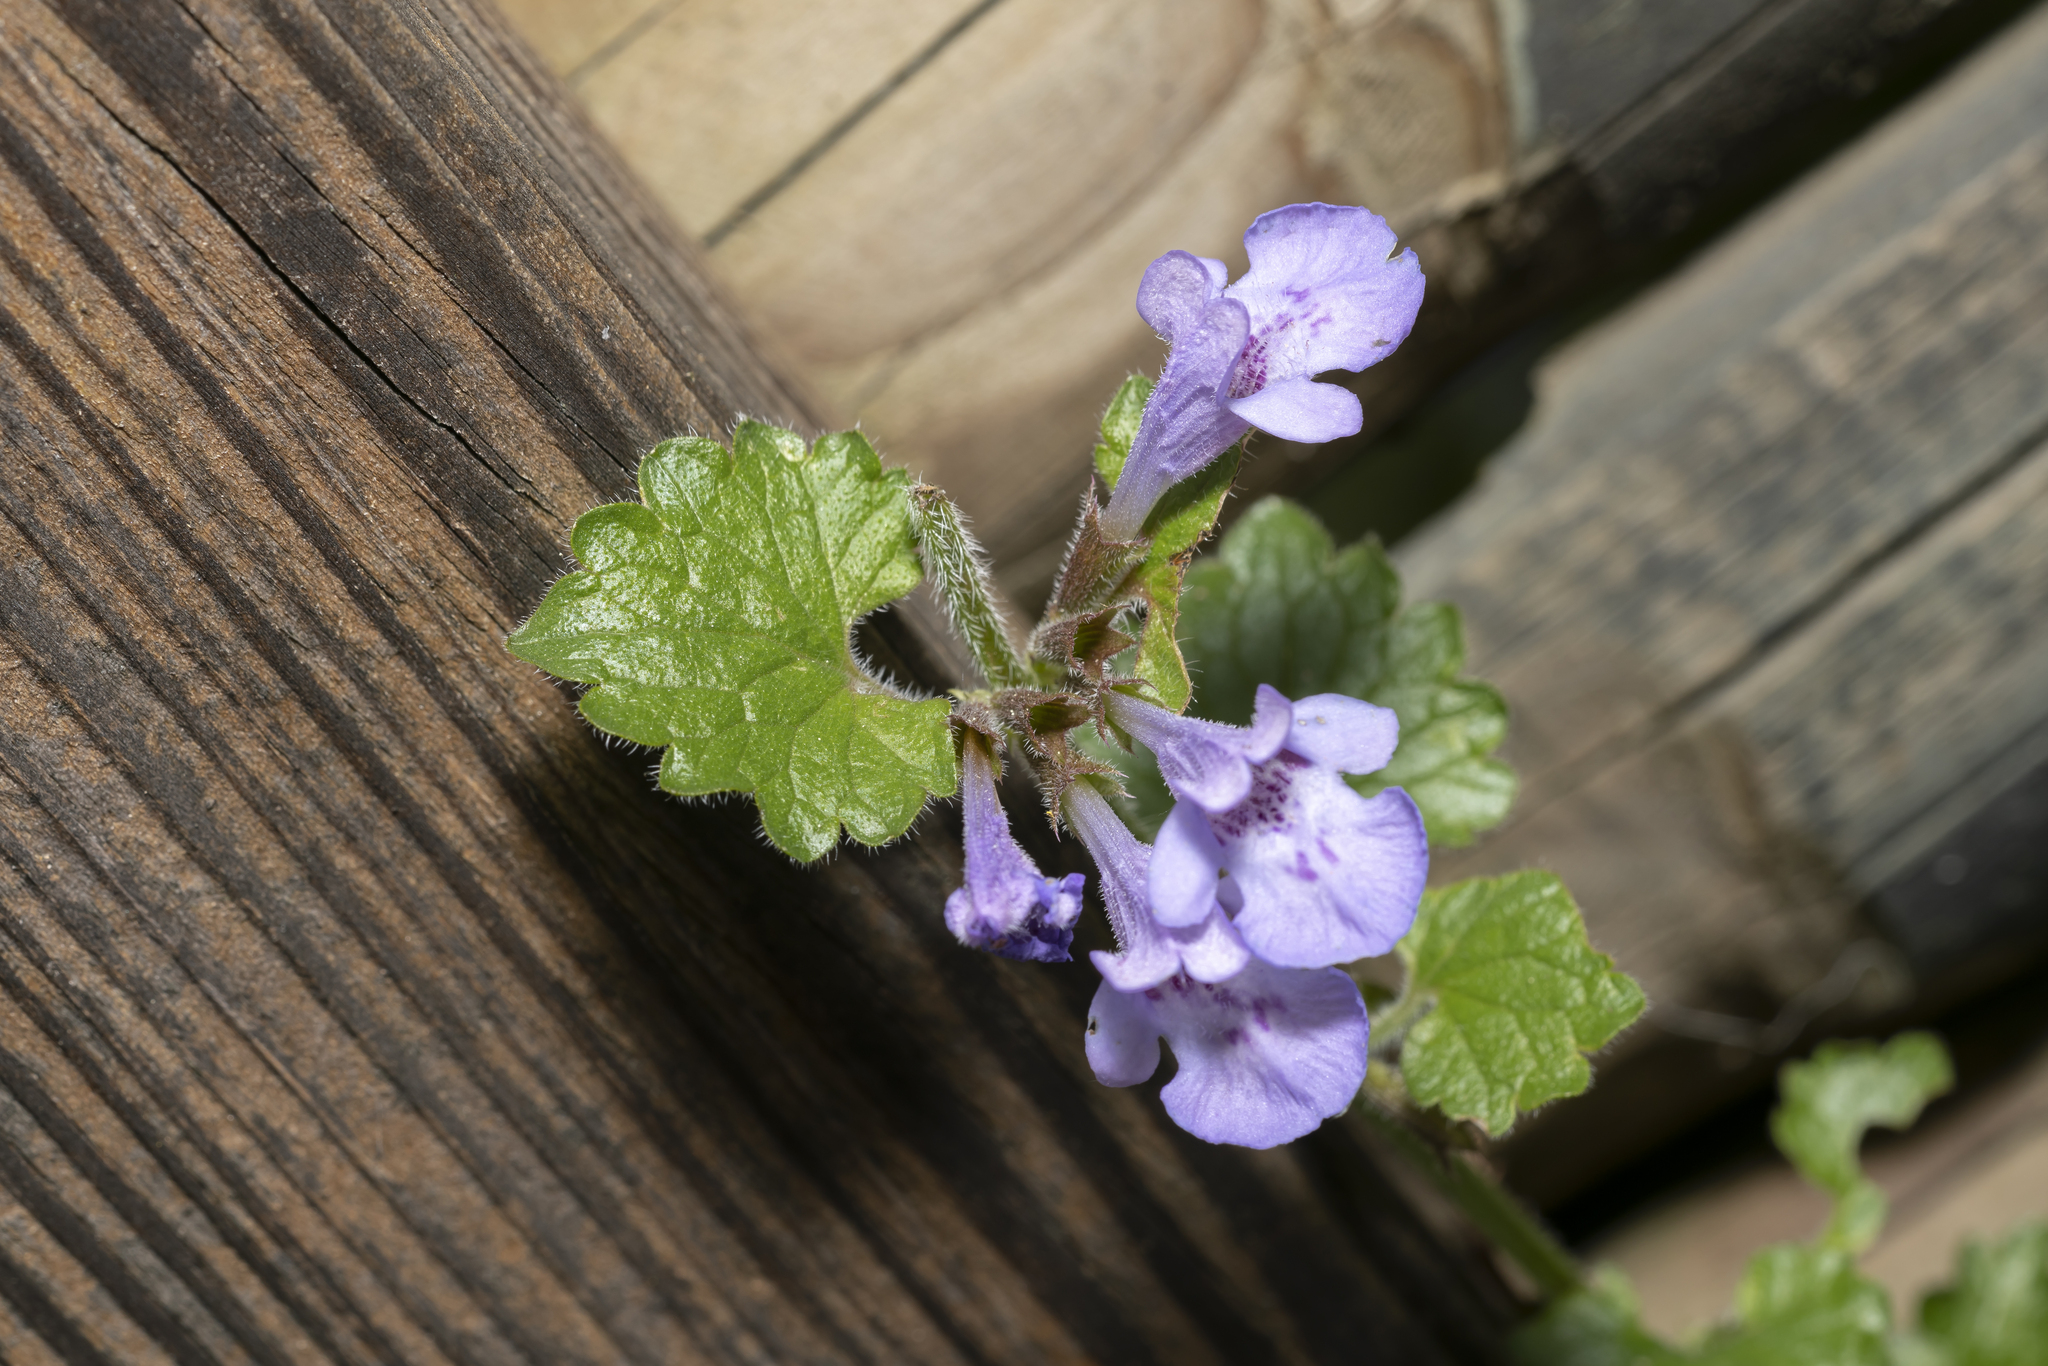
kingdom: Plantae
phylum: Tracheophyta
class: Magnoliopsida
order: Lamiales
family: Lamiaceae
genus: Glechoma
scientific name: Glechoma hederacea
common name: Ground ivy
